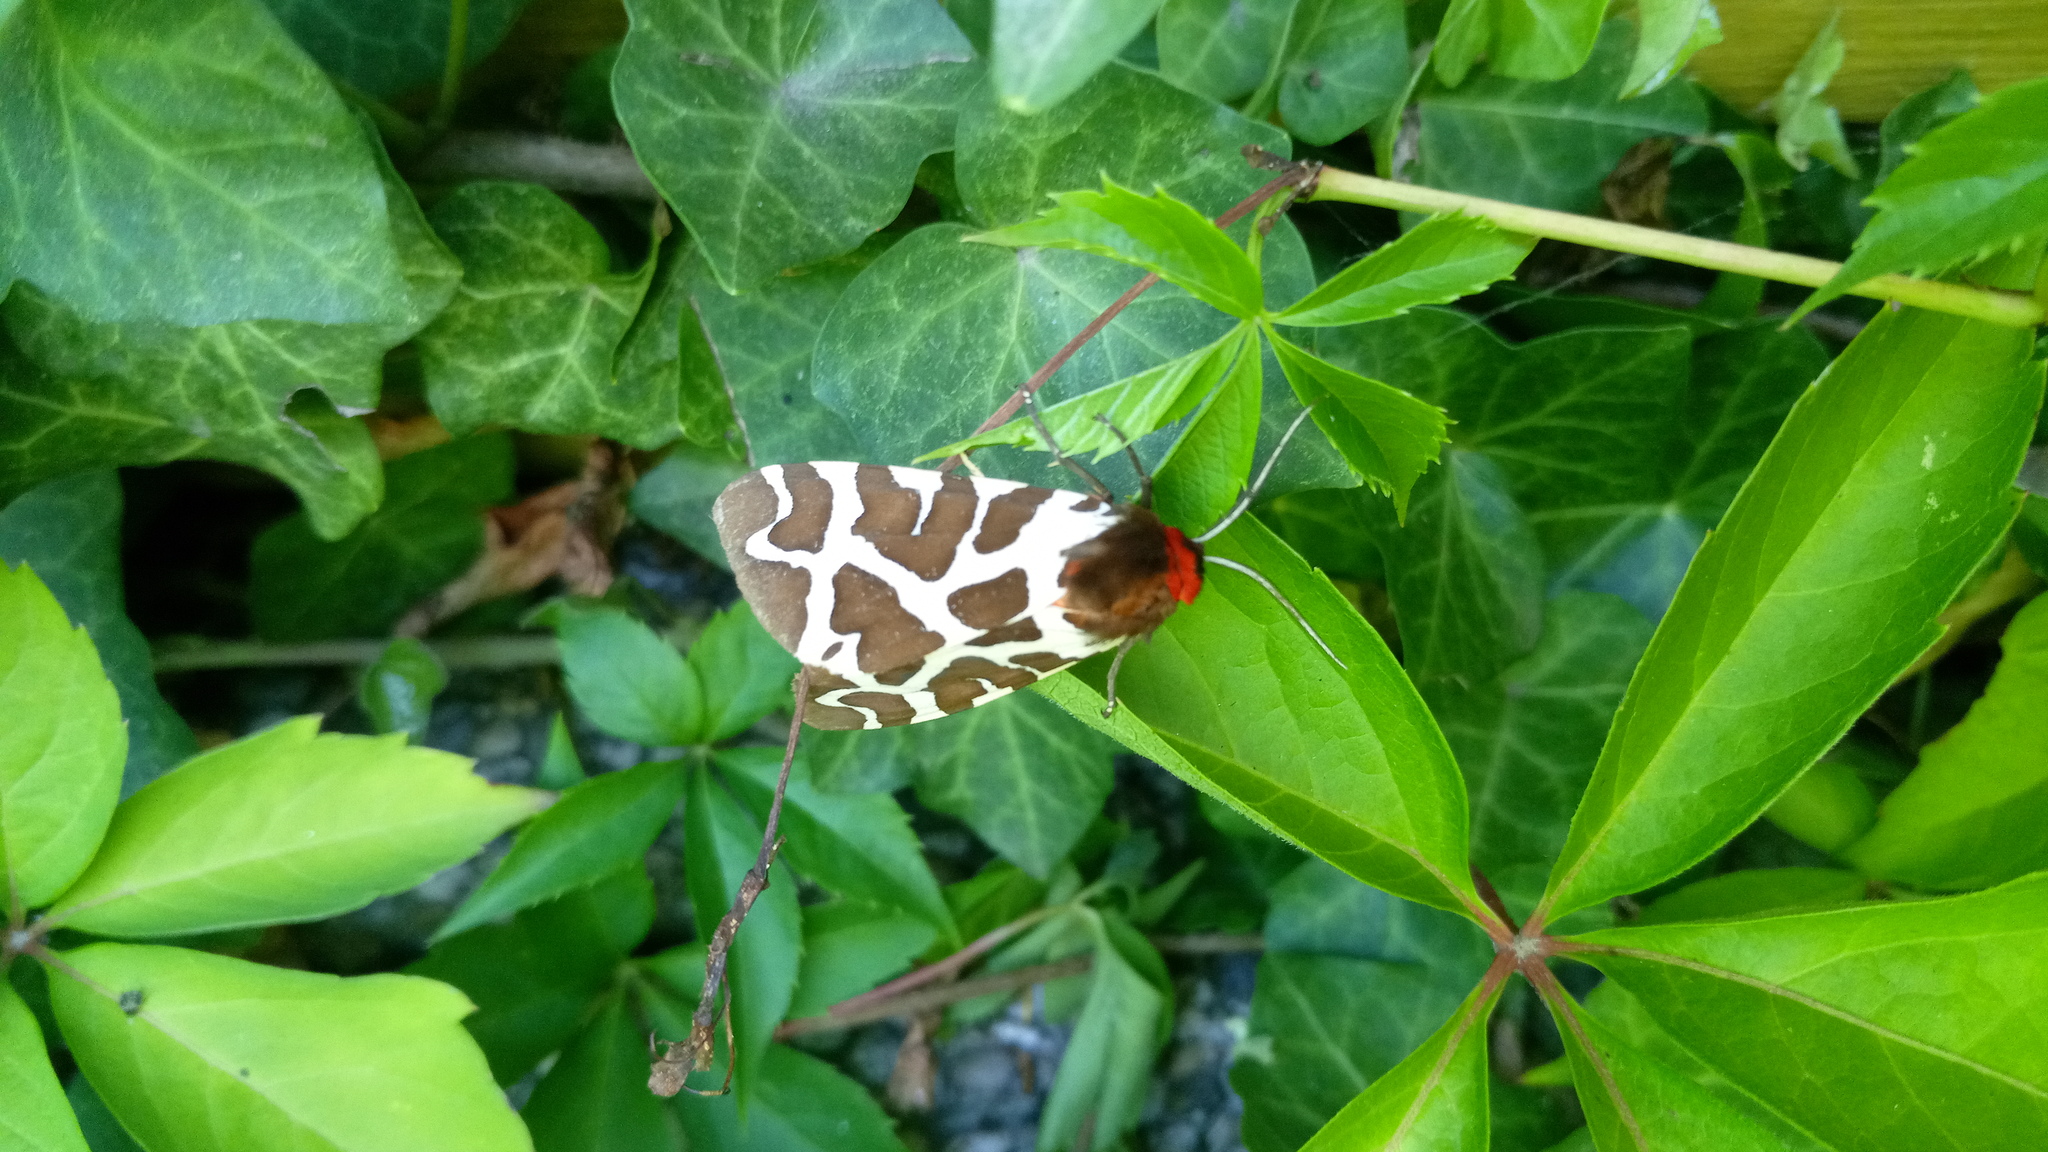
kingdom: Animalia
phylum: Arthropoda
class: Insecta
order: Lepidoptera
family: Erebidae
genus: Arctia
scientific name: Arctia caja
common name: Garden tiger
